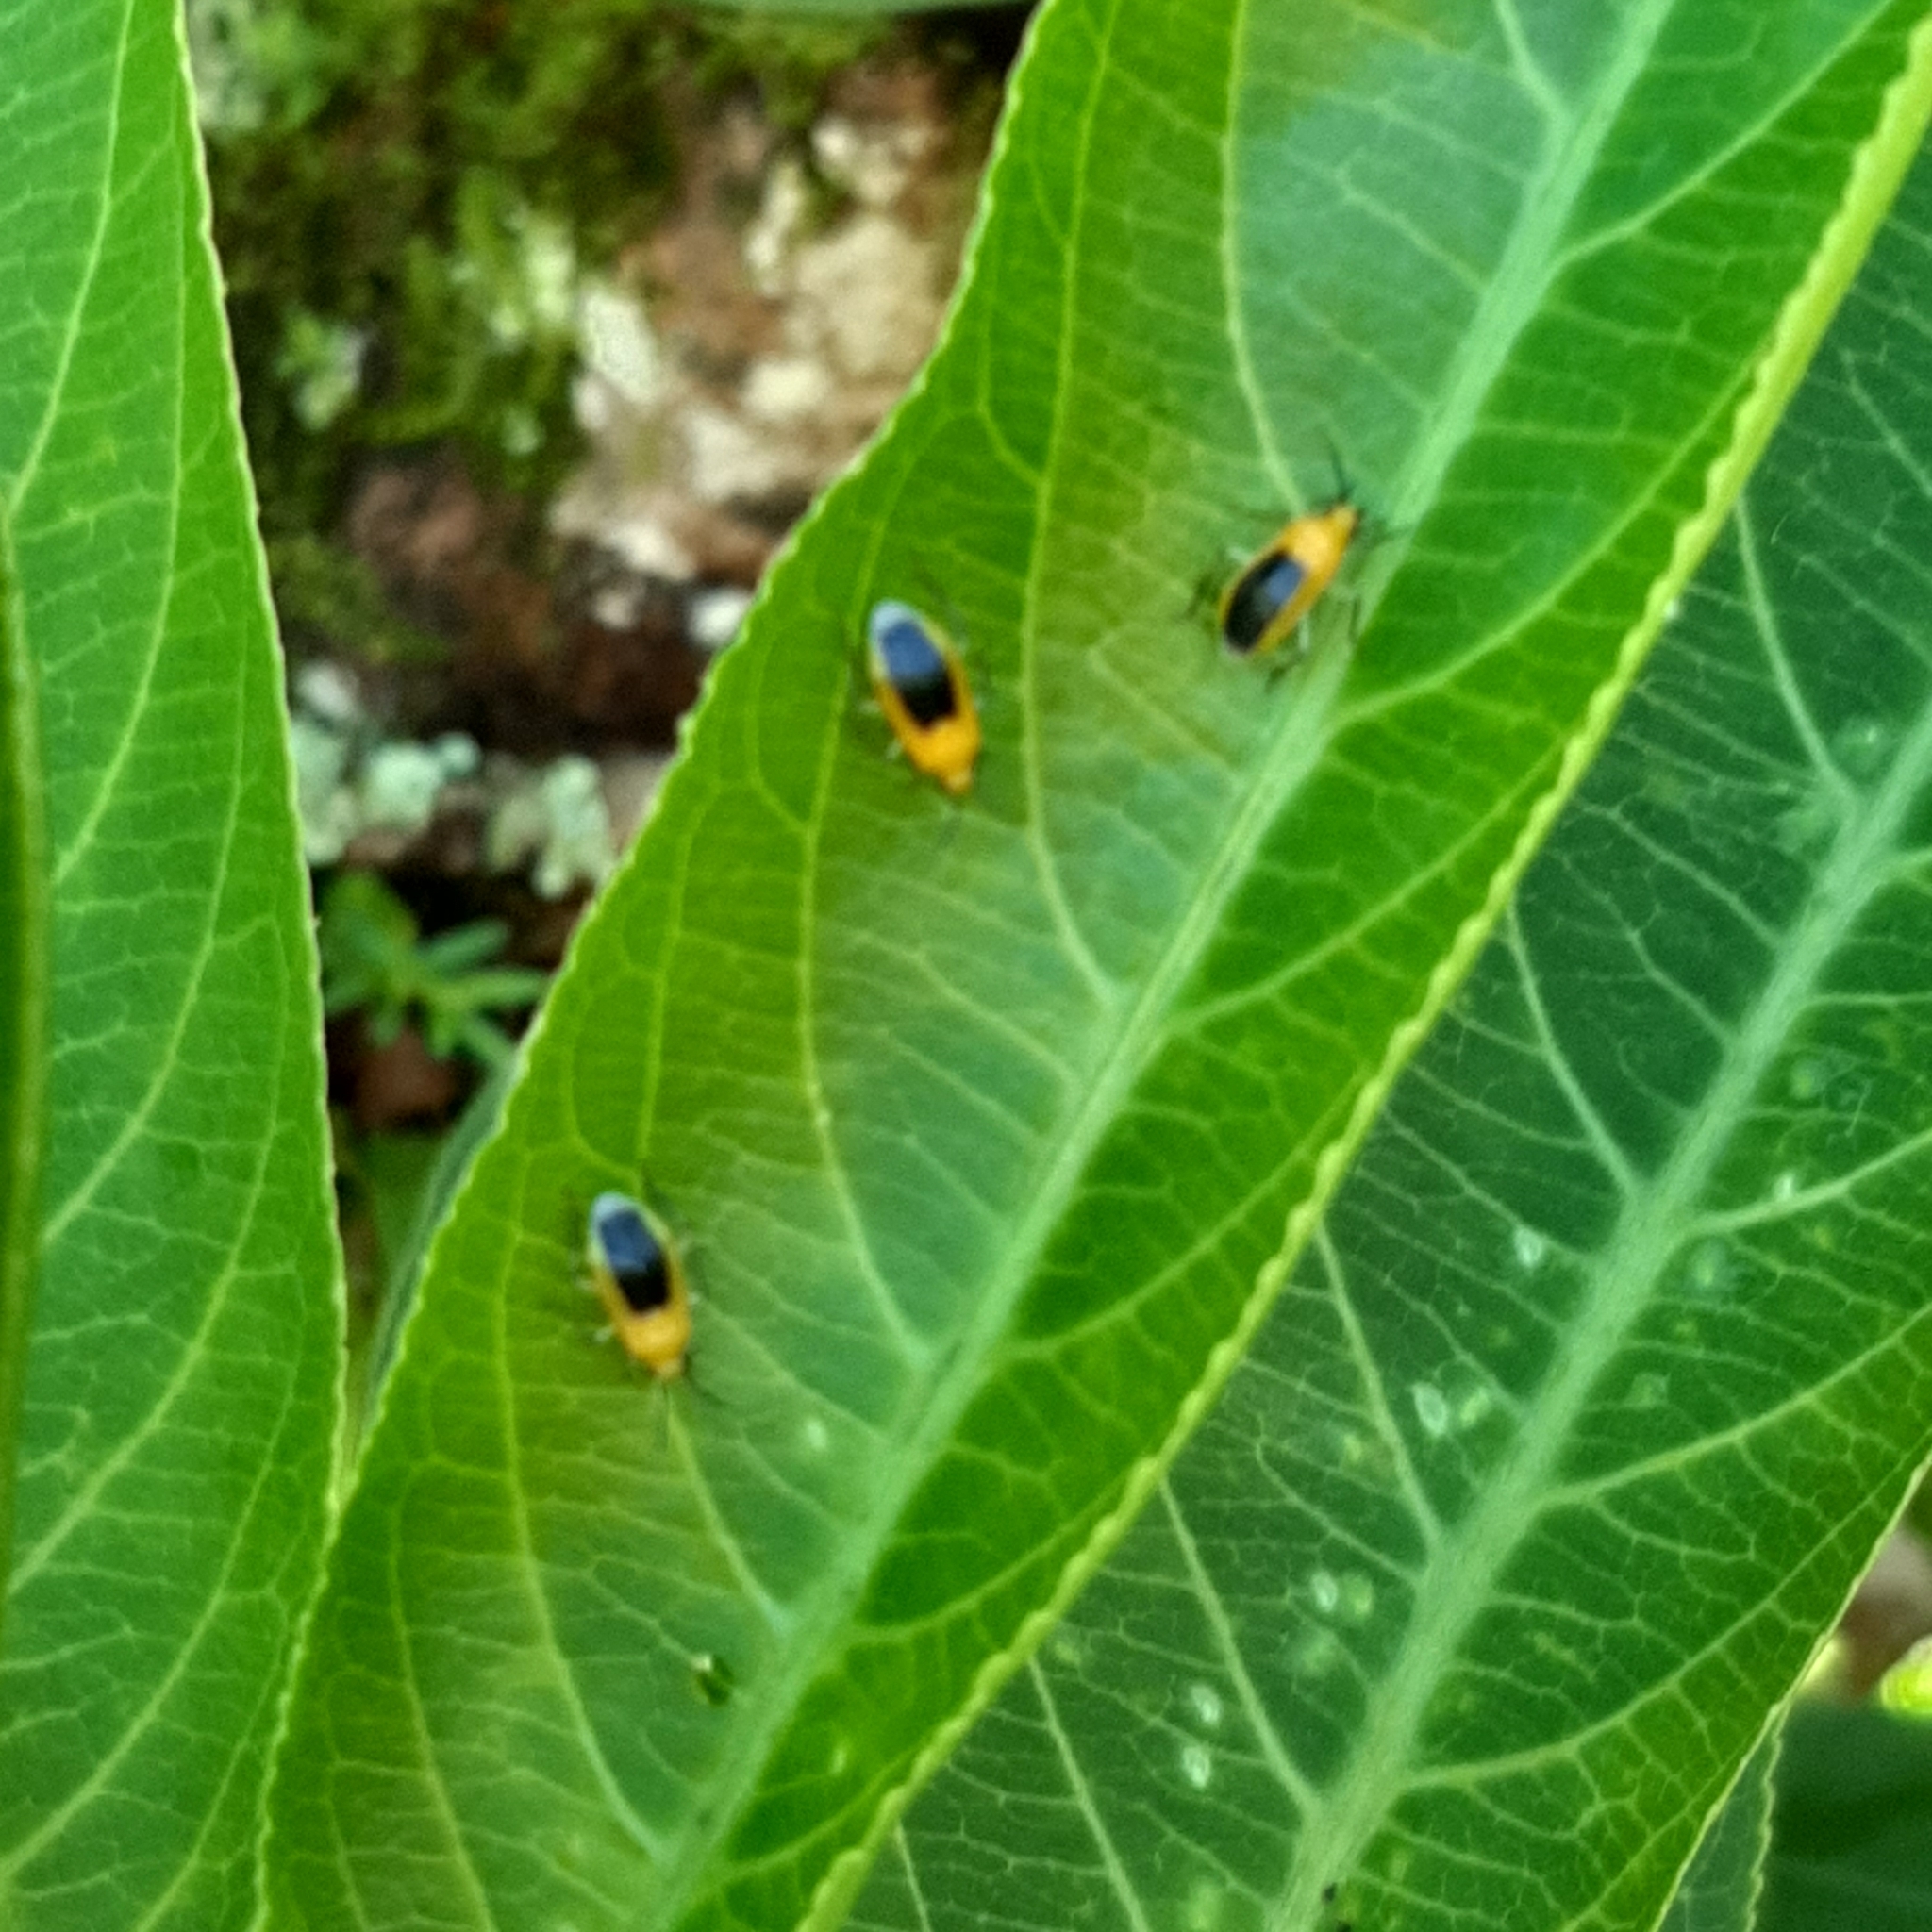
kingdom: Animalia
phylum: Arthropoda
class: Insecta
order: Hemiptera
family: Miridae
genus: Neella
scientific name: Neella frumentaria
